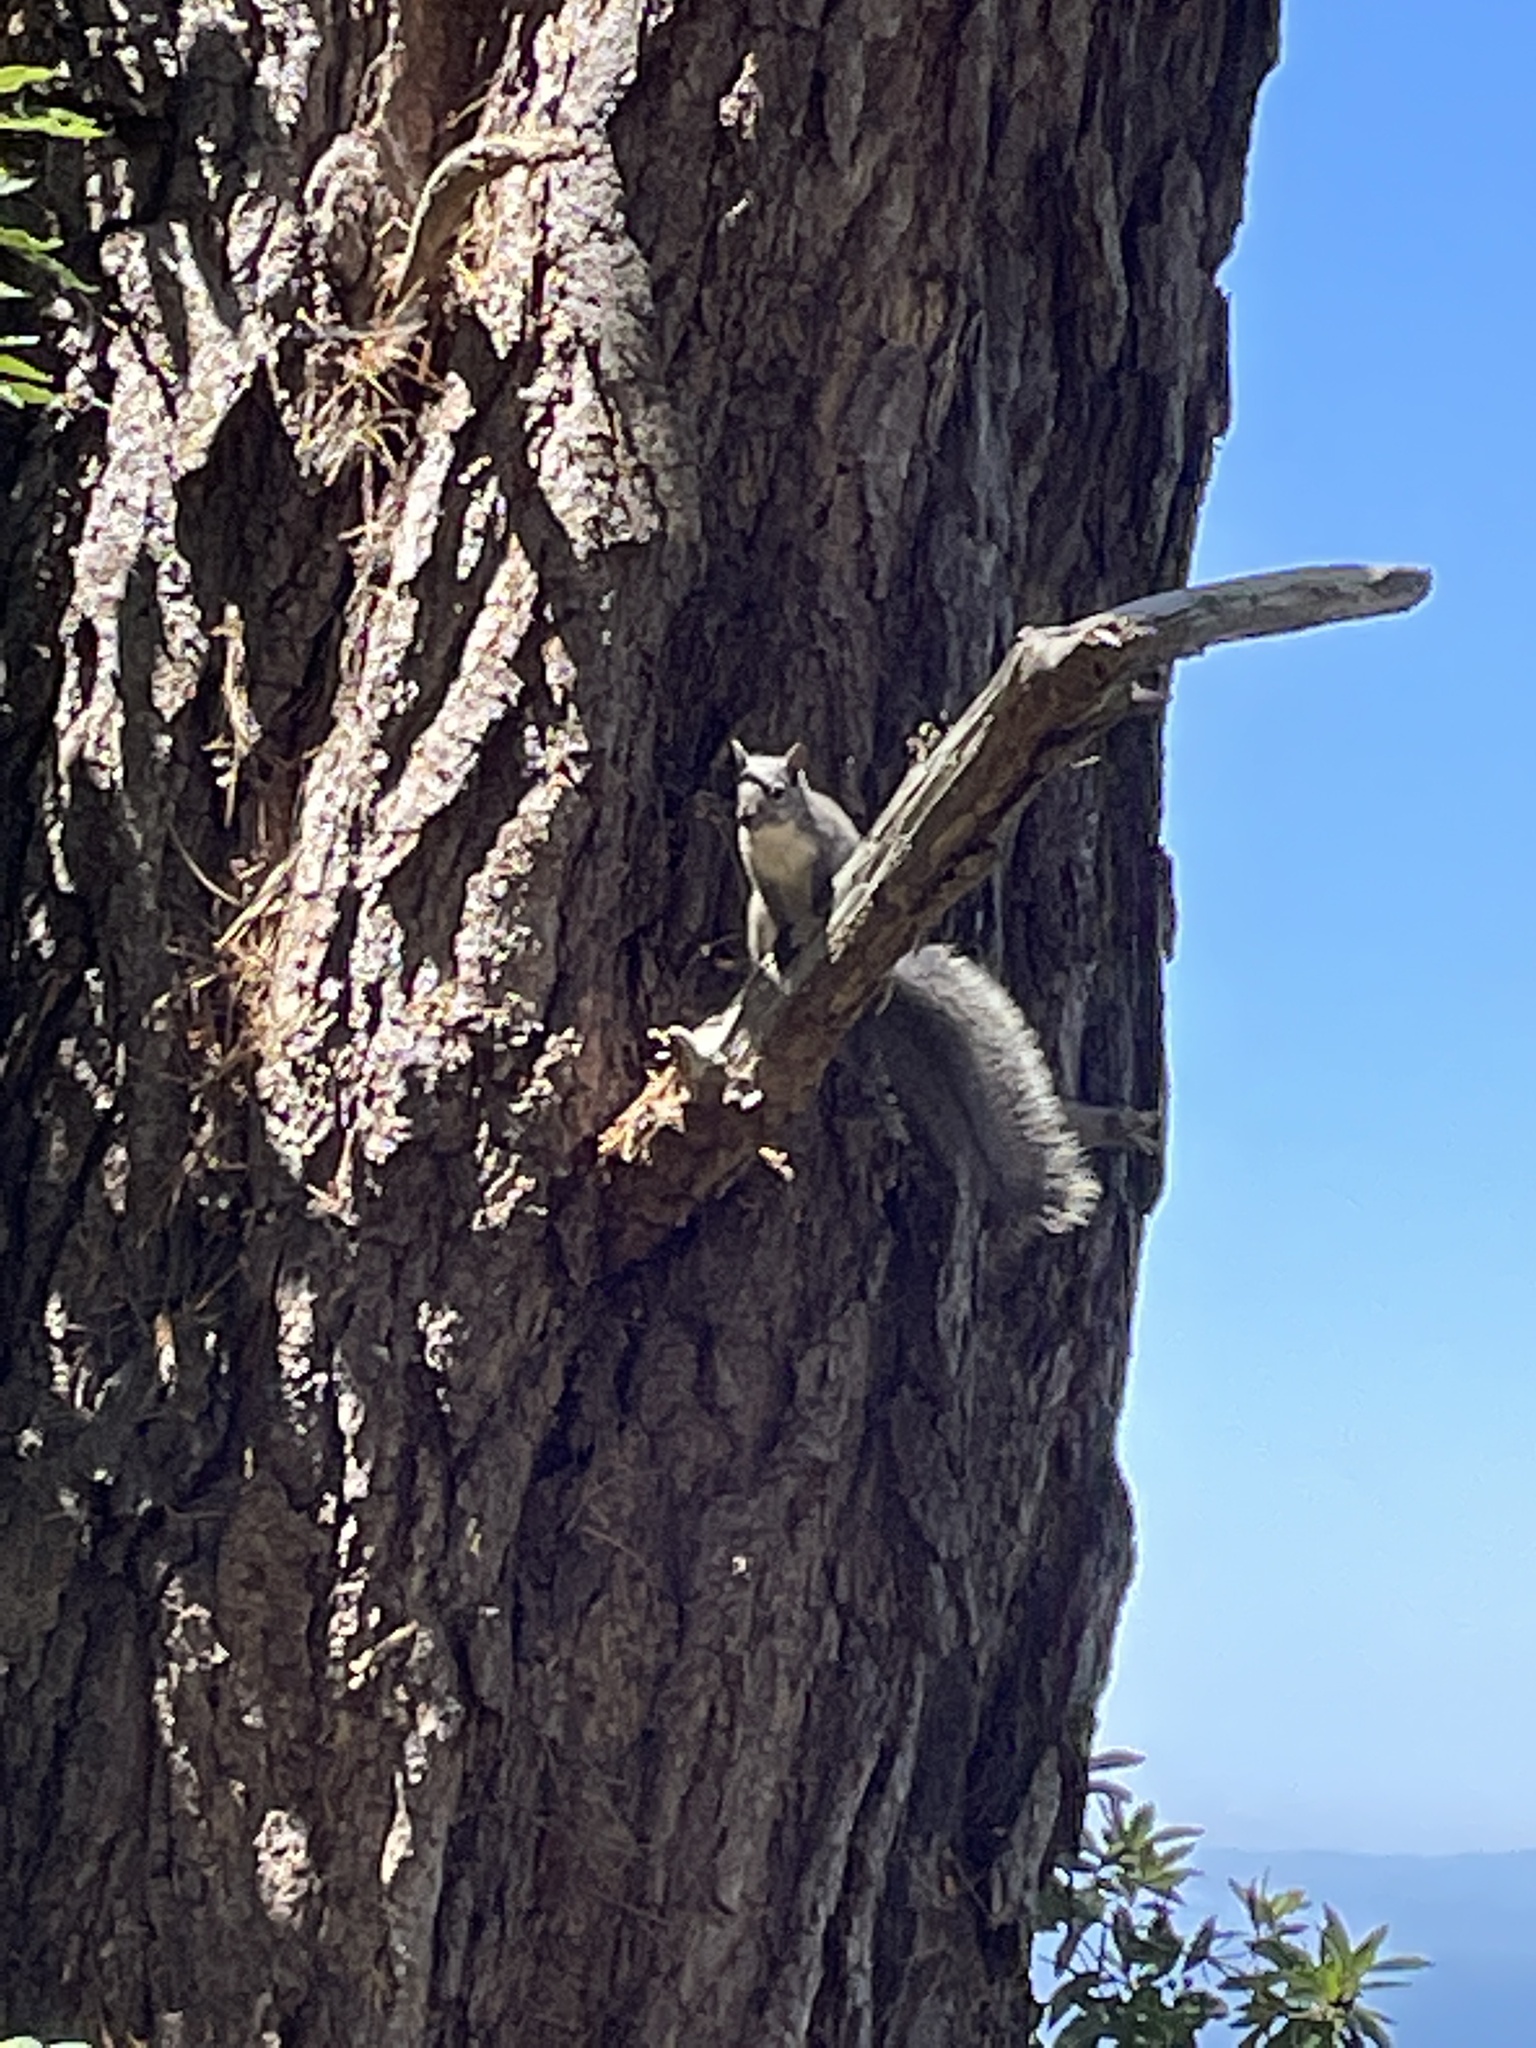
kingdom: Animalia
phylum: Chordata
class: Mammalia
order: Rodentia
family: Sciuridae
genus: Sciurus
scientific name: Sciurus griseus
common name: Western gray squirrel
